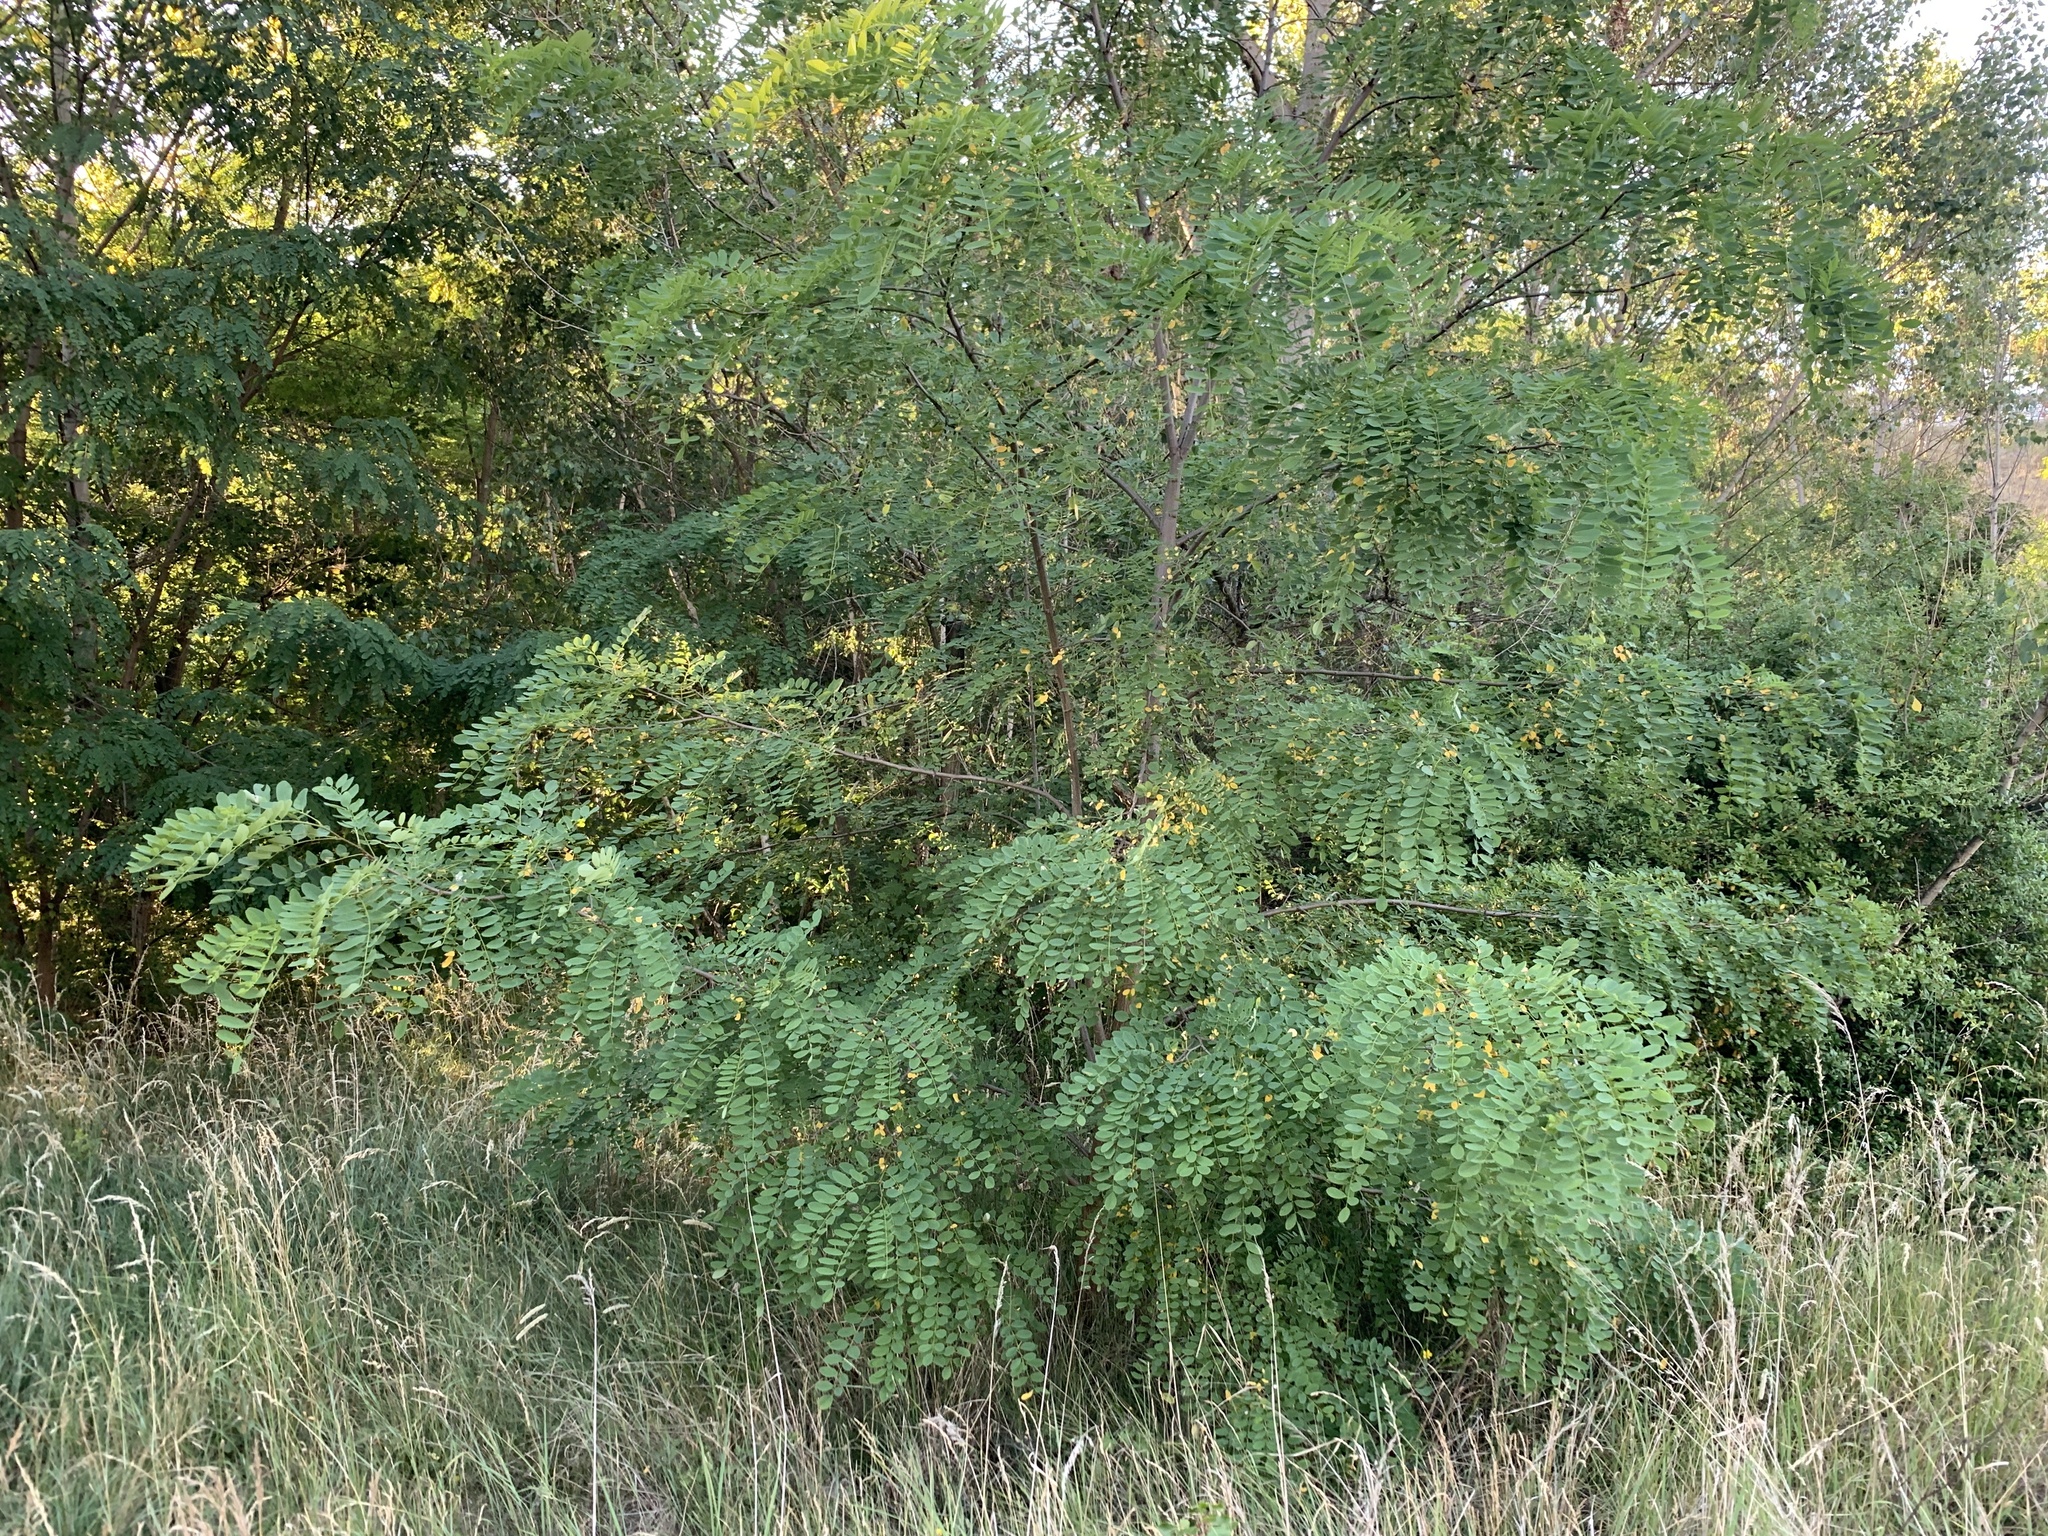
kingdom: Plantae
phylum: Tracheophyta
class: Magnoliopsida
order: Fabales
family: Fabaceae
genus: Robinia
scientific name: Robinia pseudoacacia
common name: Black locust
